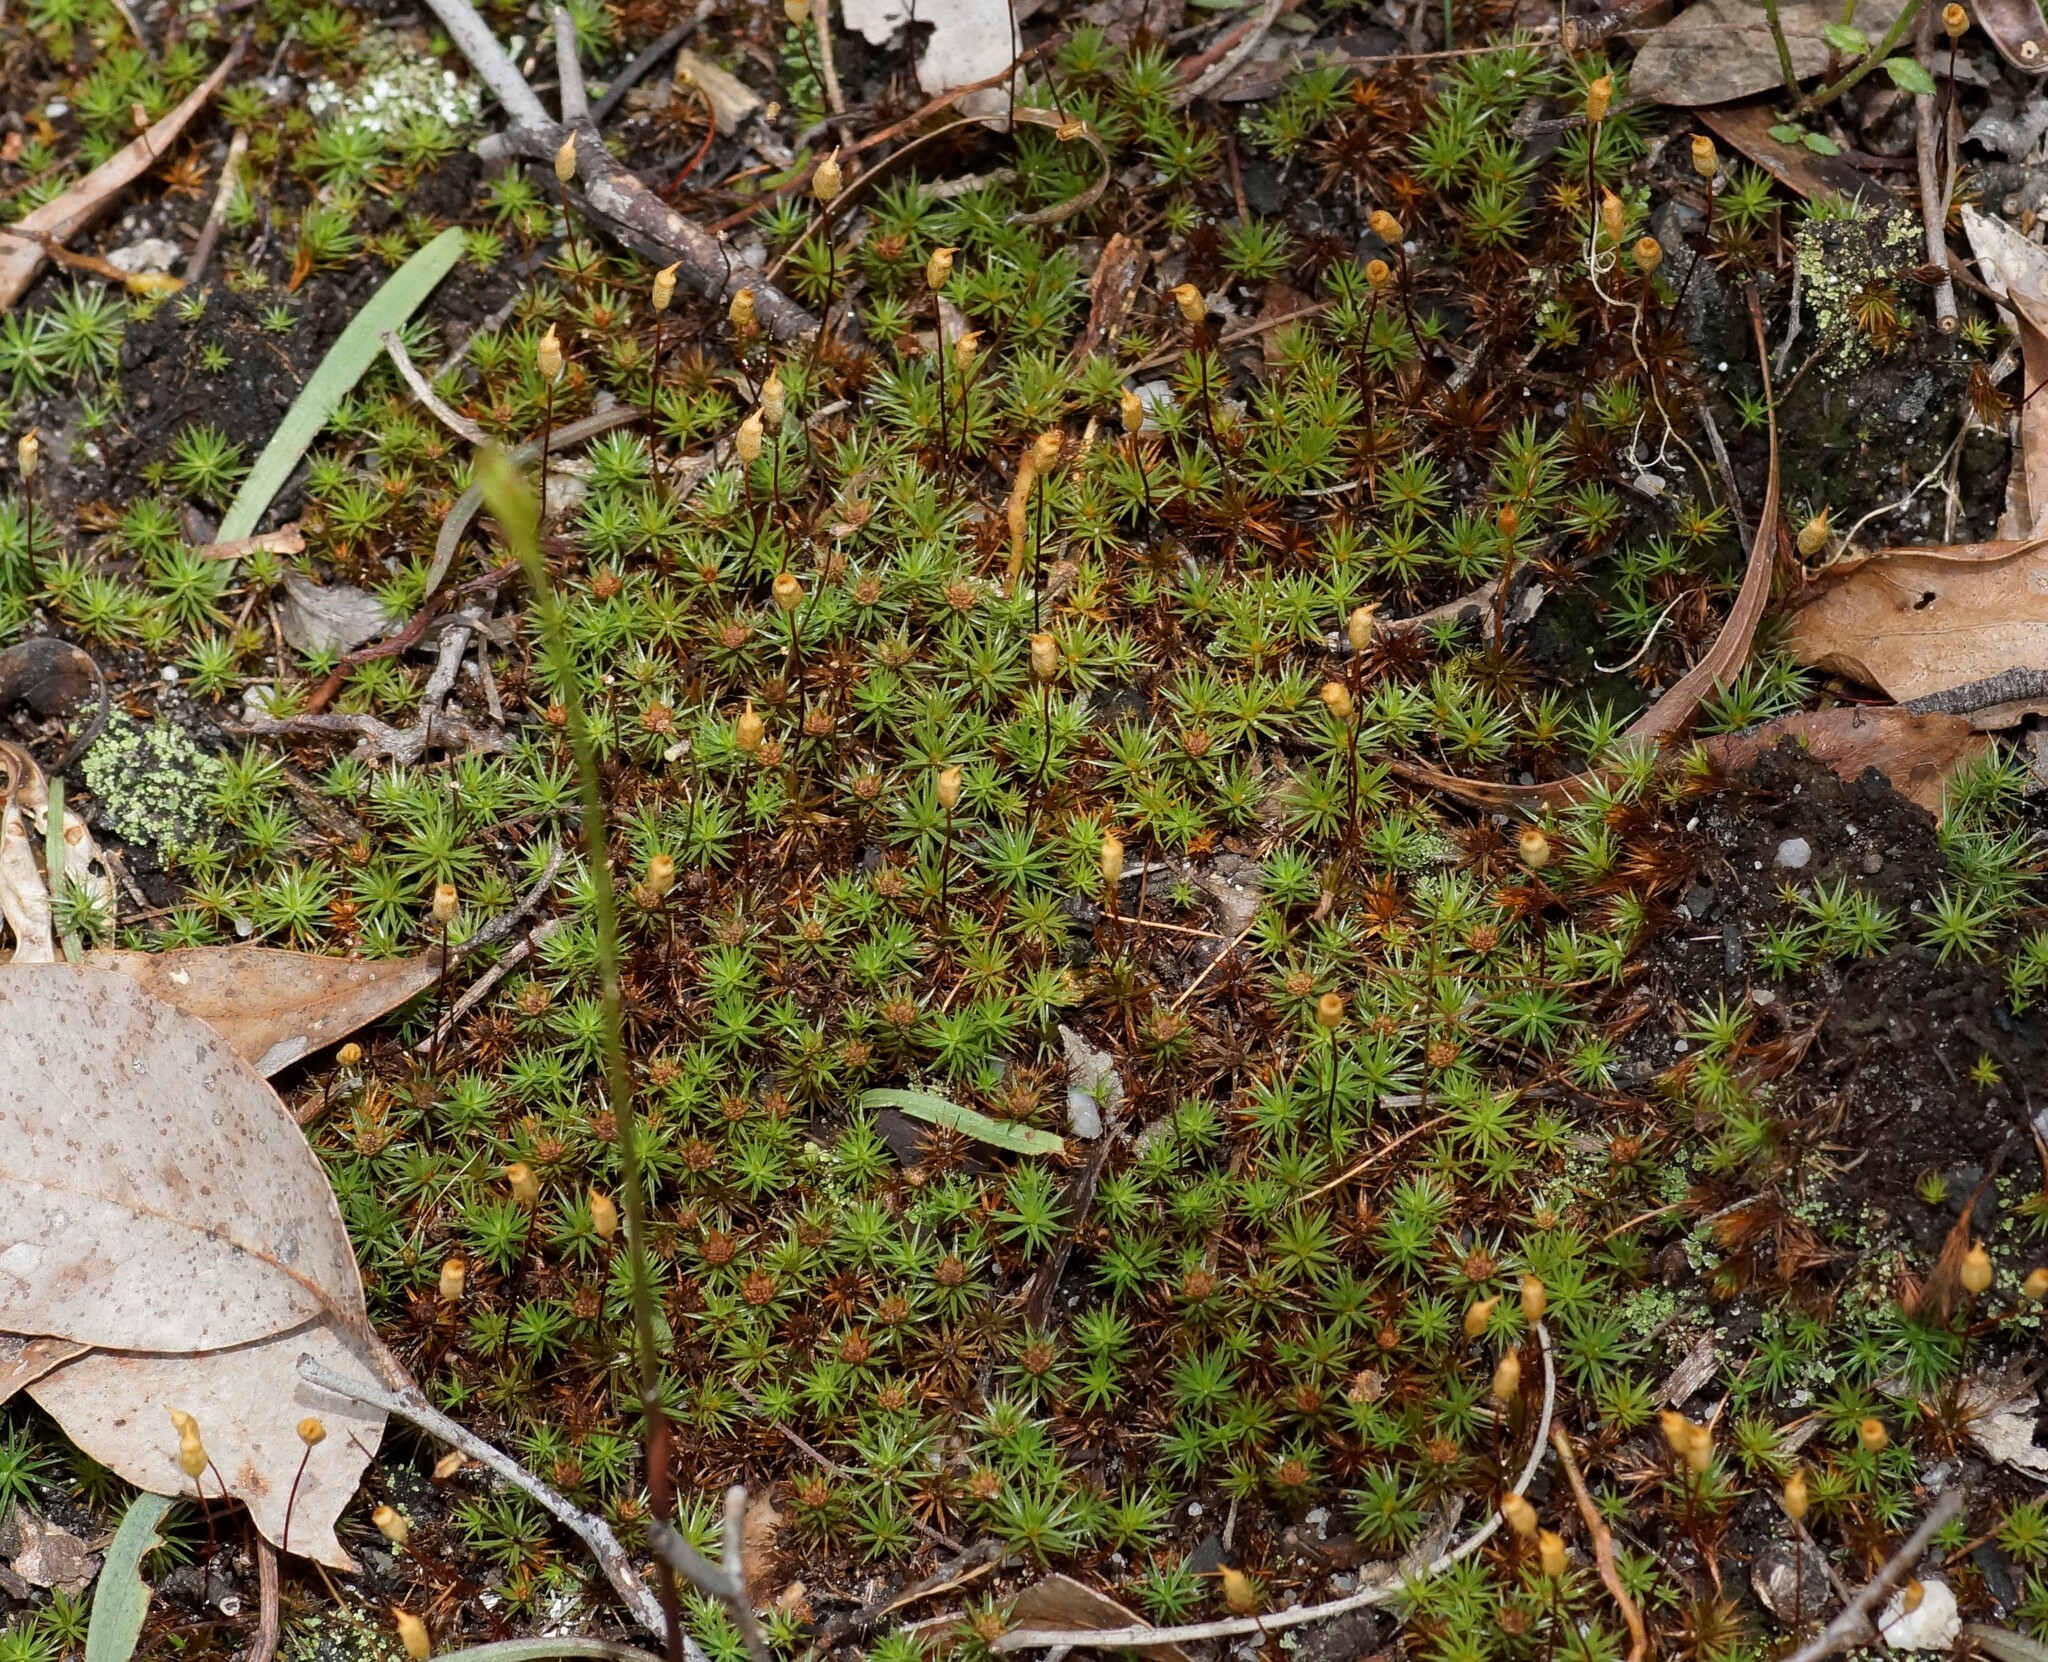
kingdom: Plantae
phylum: Bryophyta
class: Polytrichopsida
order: Polytrichales
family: Polytrichaceae
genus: Polytrichum
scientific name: Polytrichum juniperinum
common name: Juniper haircap moss
